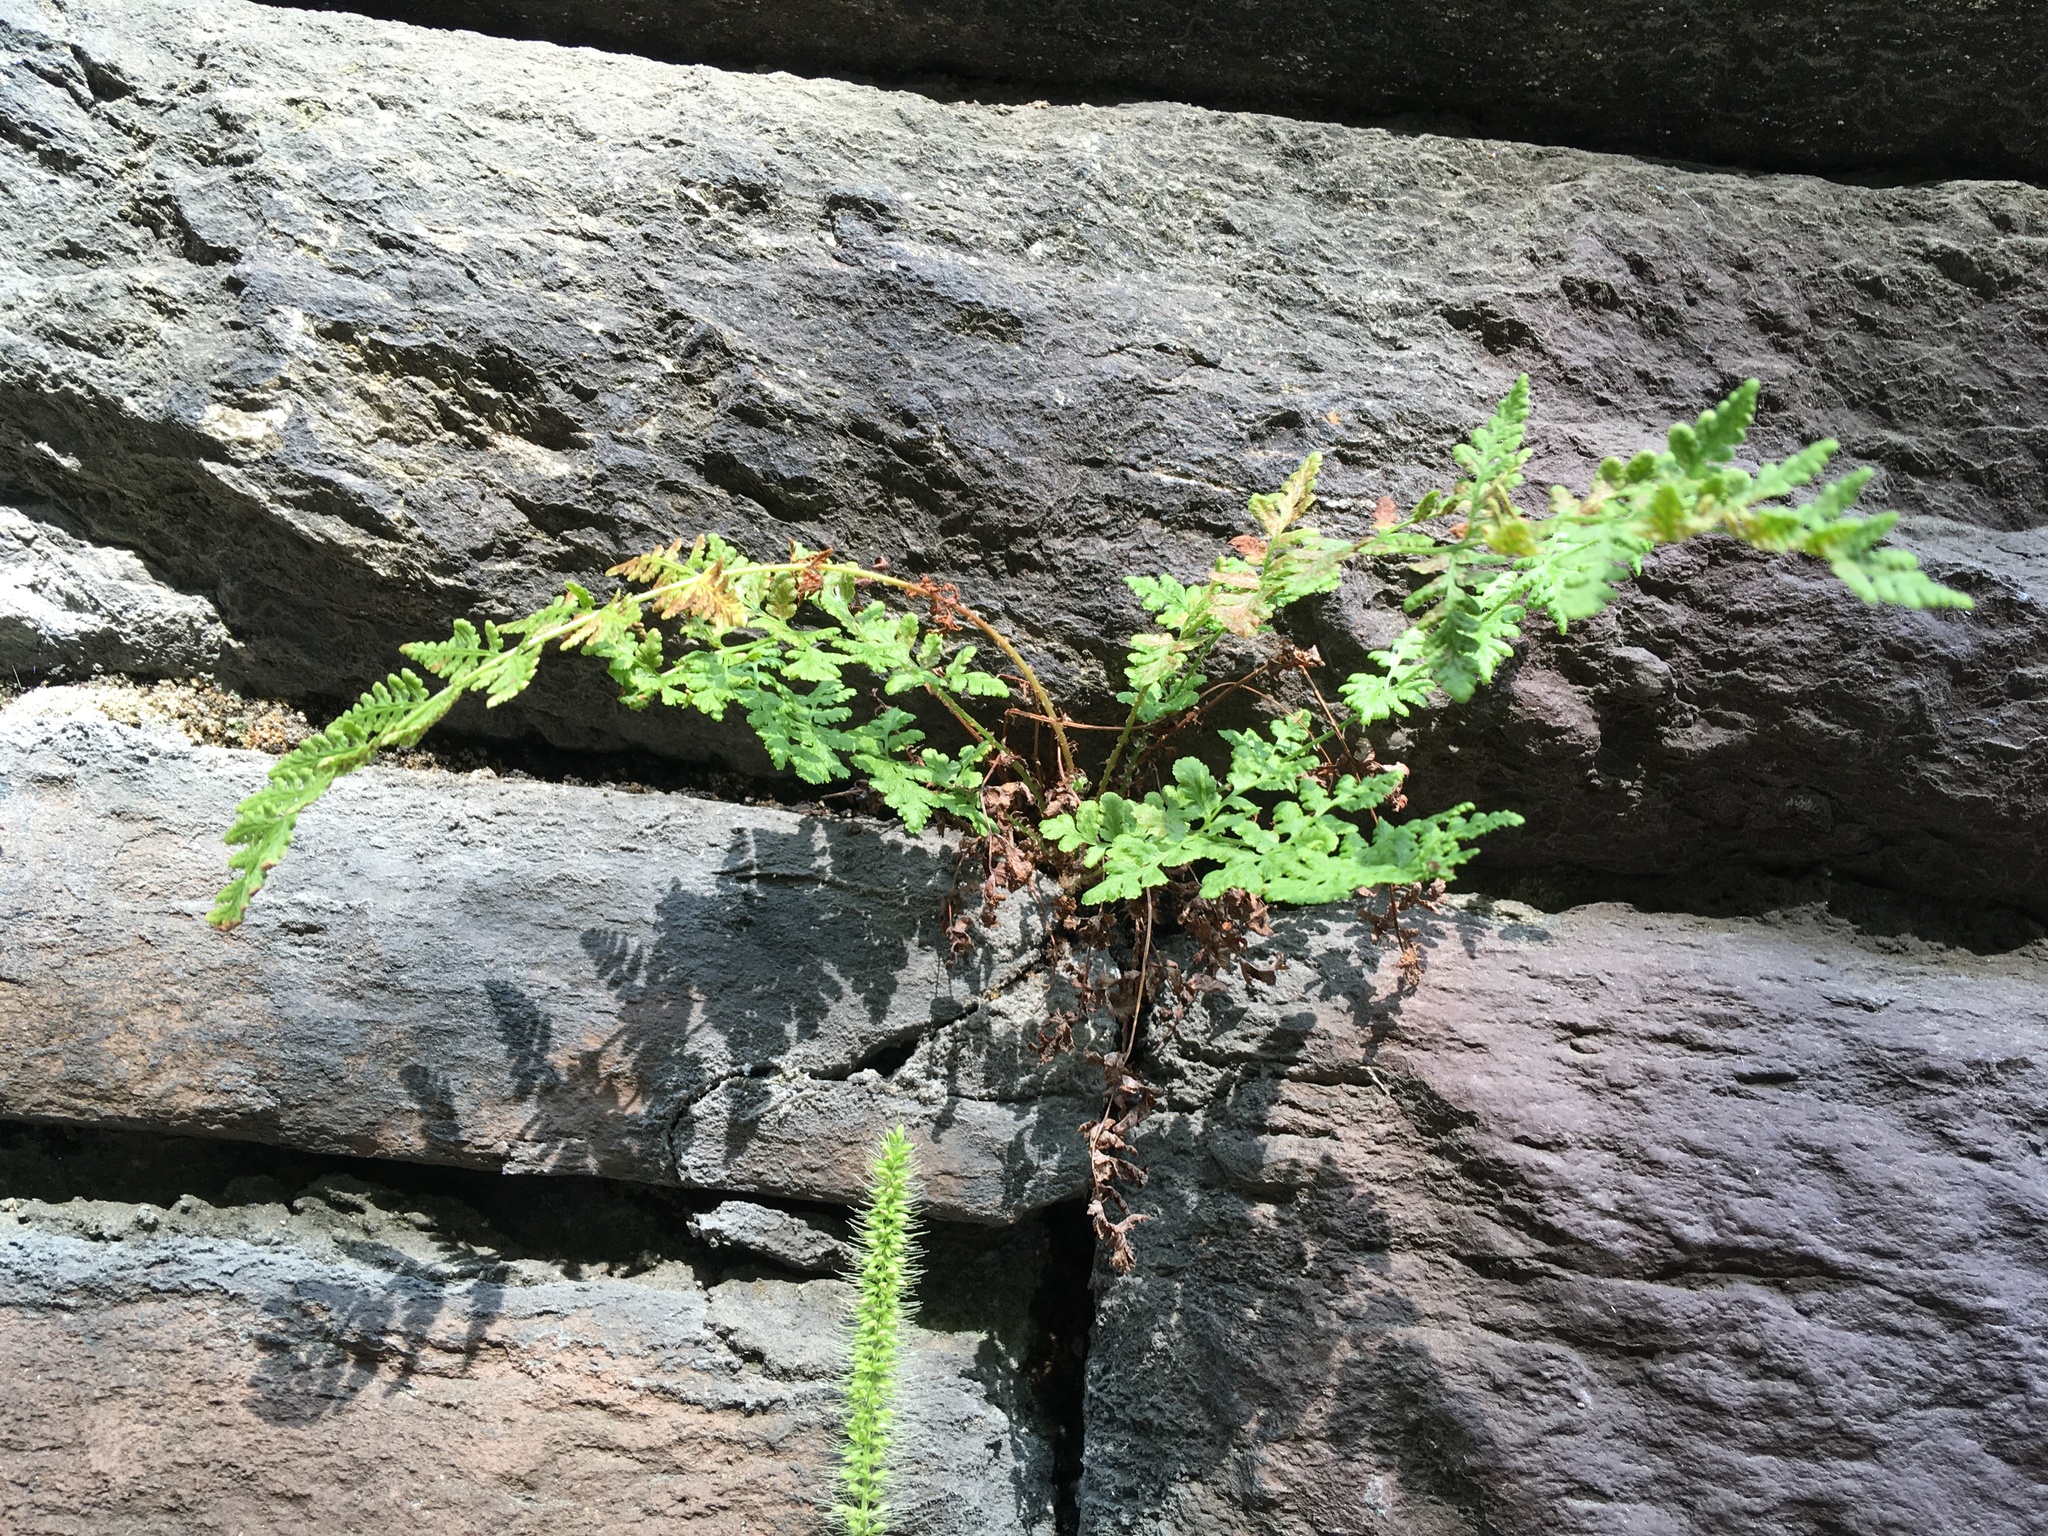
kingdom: Plantae
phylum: Tracheophyta
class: Polypodiopsida
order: Polypodiales
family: Woodsiaceae
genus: Physematium
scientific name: Physematium obtusum
